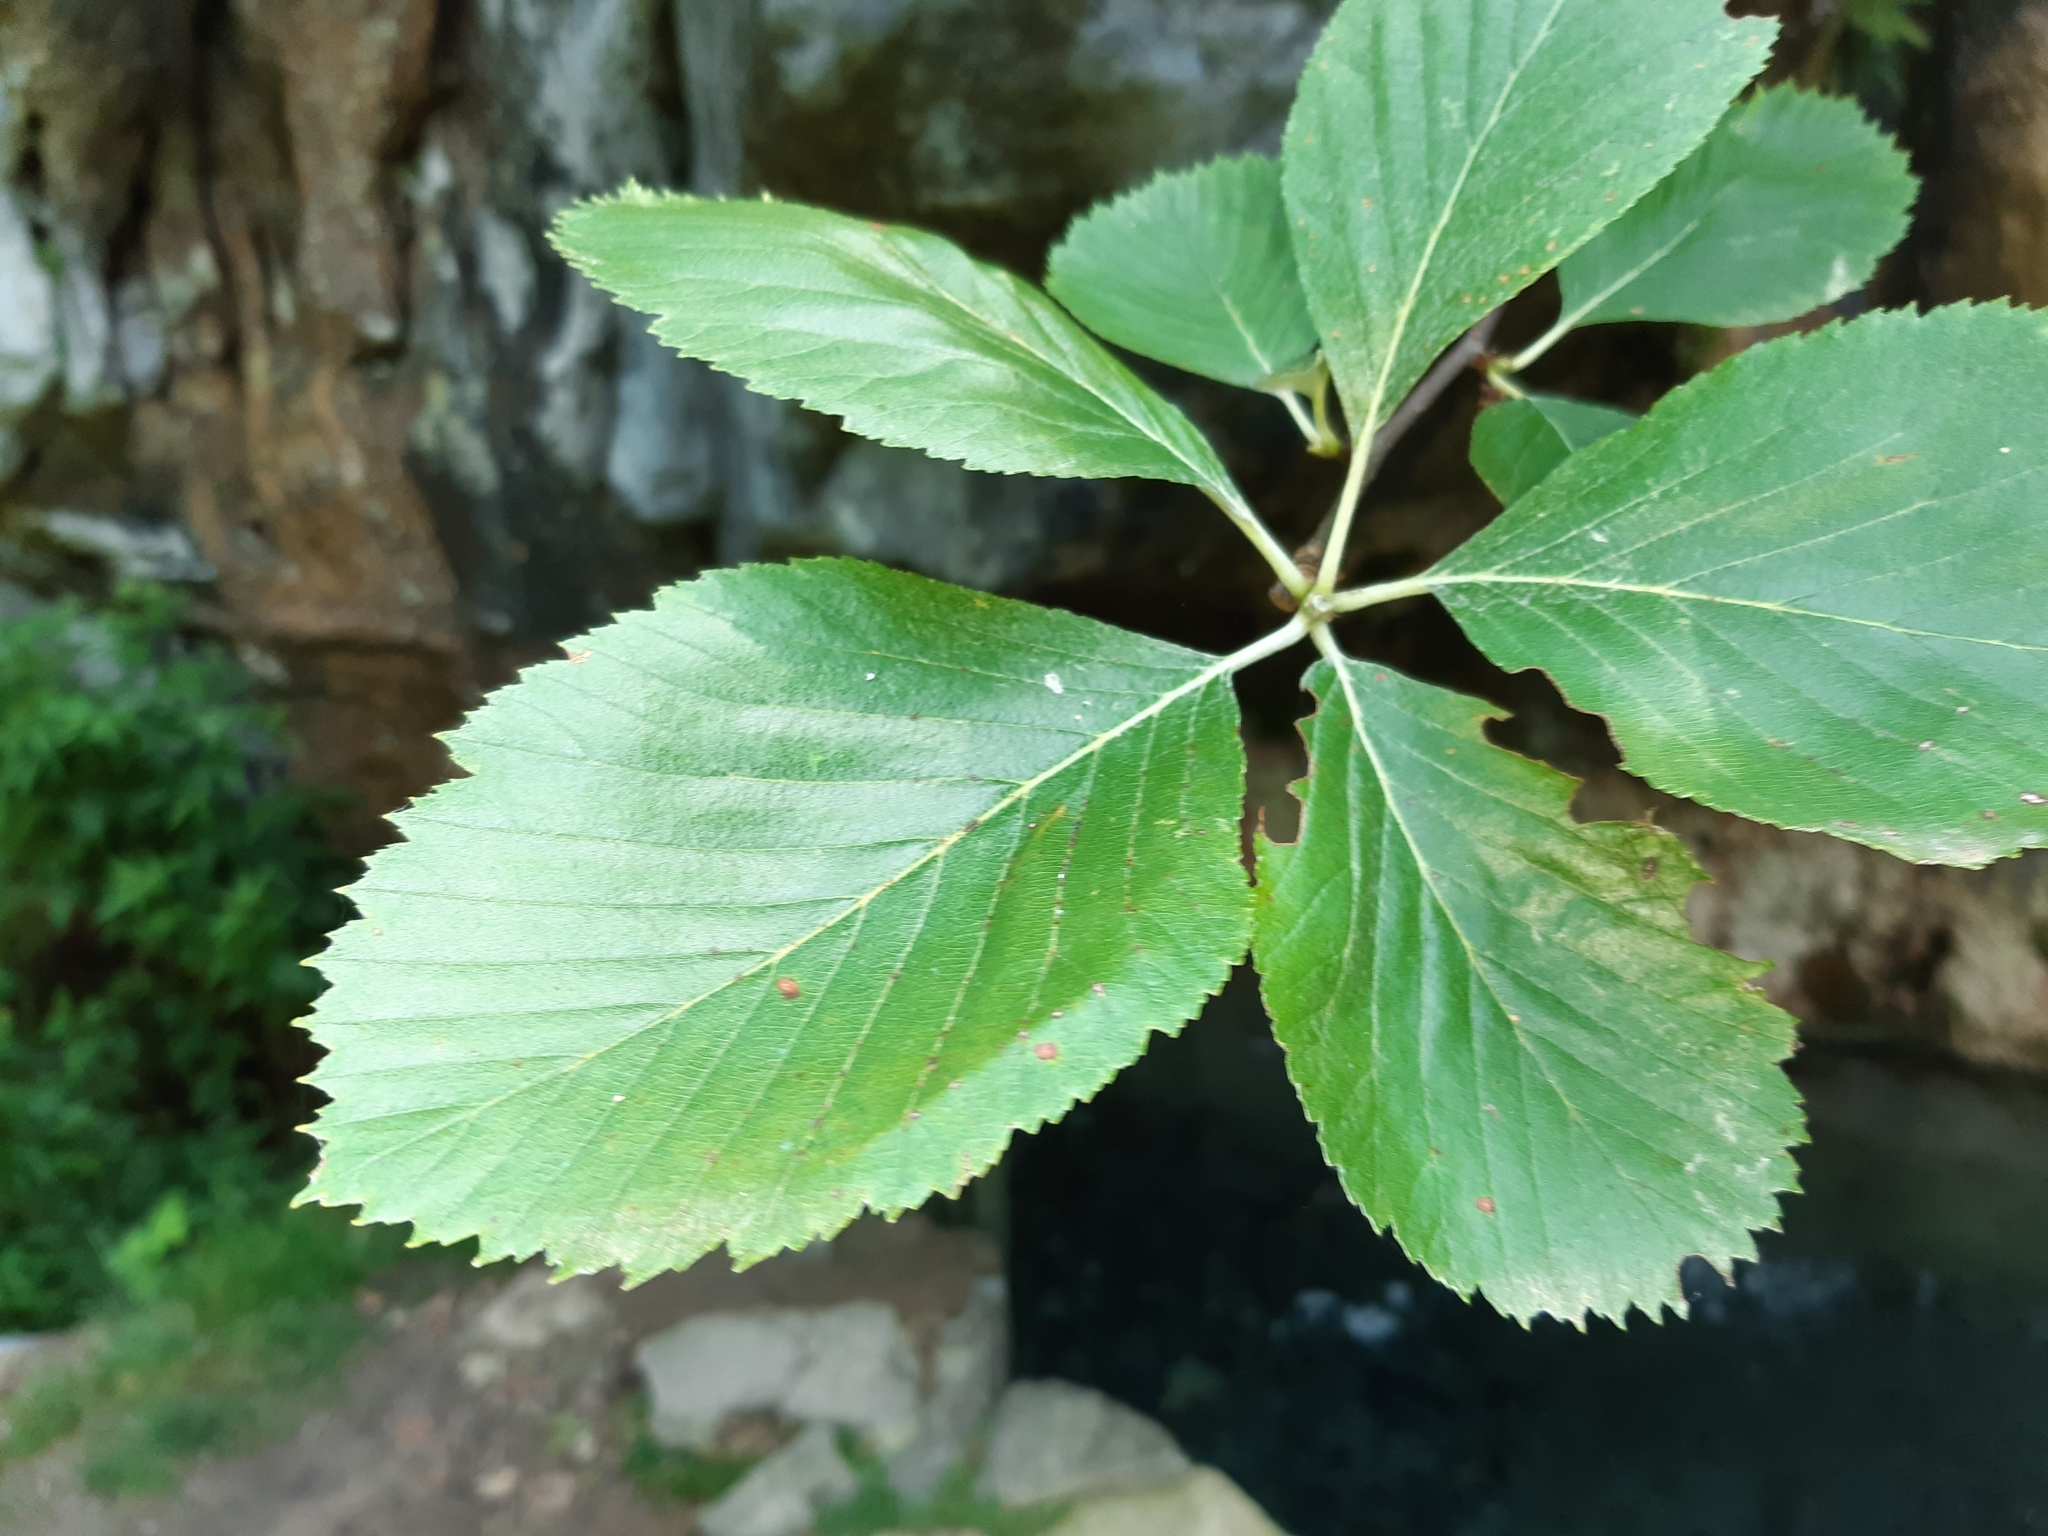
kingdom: Plantae
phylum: Tracheophyta
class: Magnoliopsida
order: Rosales
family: Rosaceae
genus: Aria
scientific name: Aria edulis
